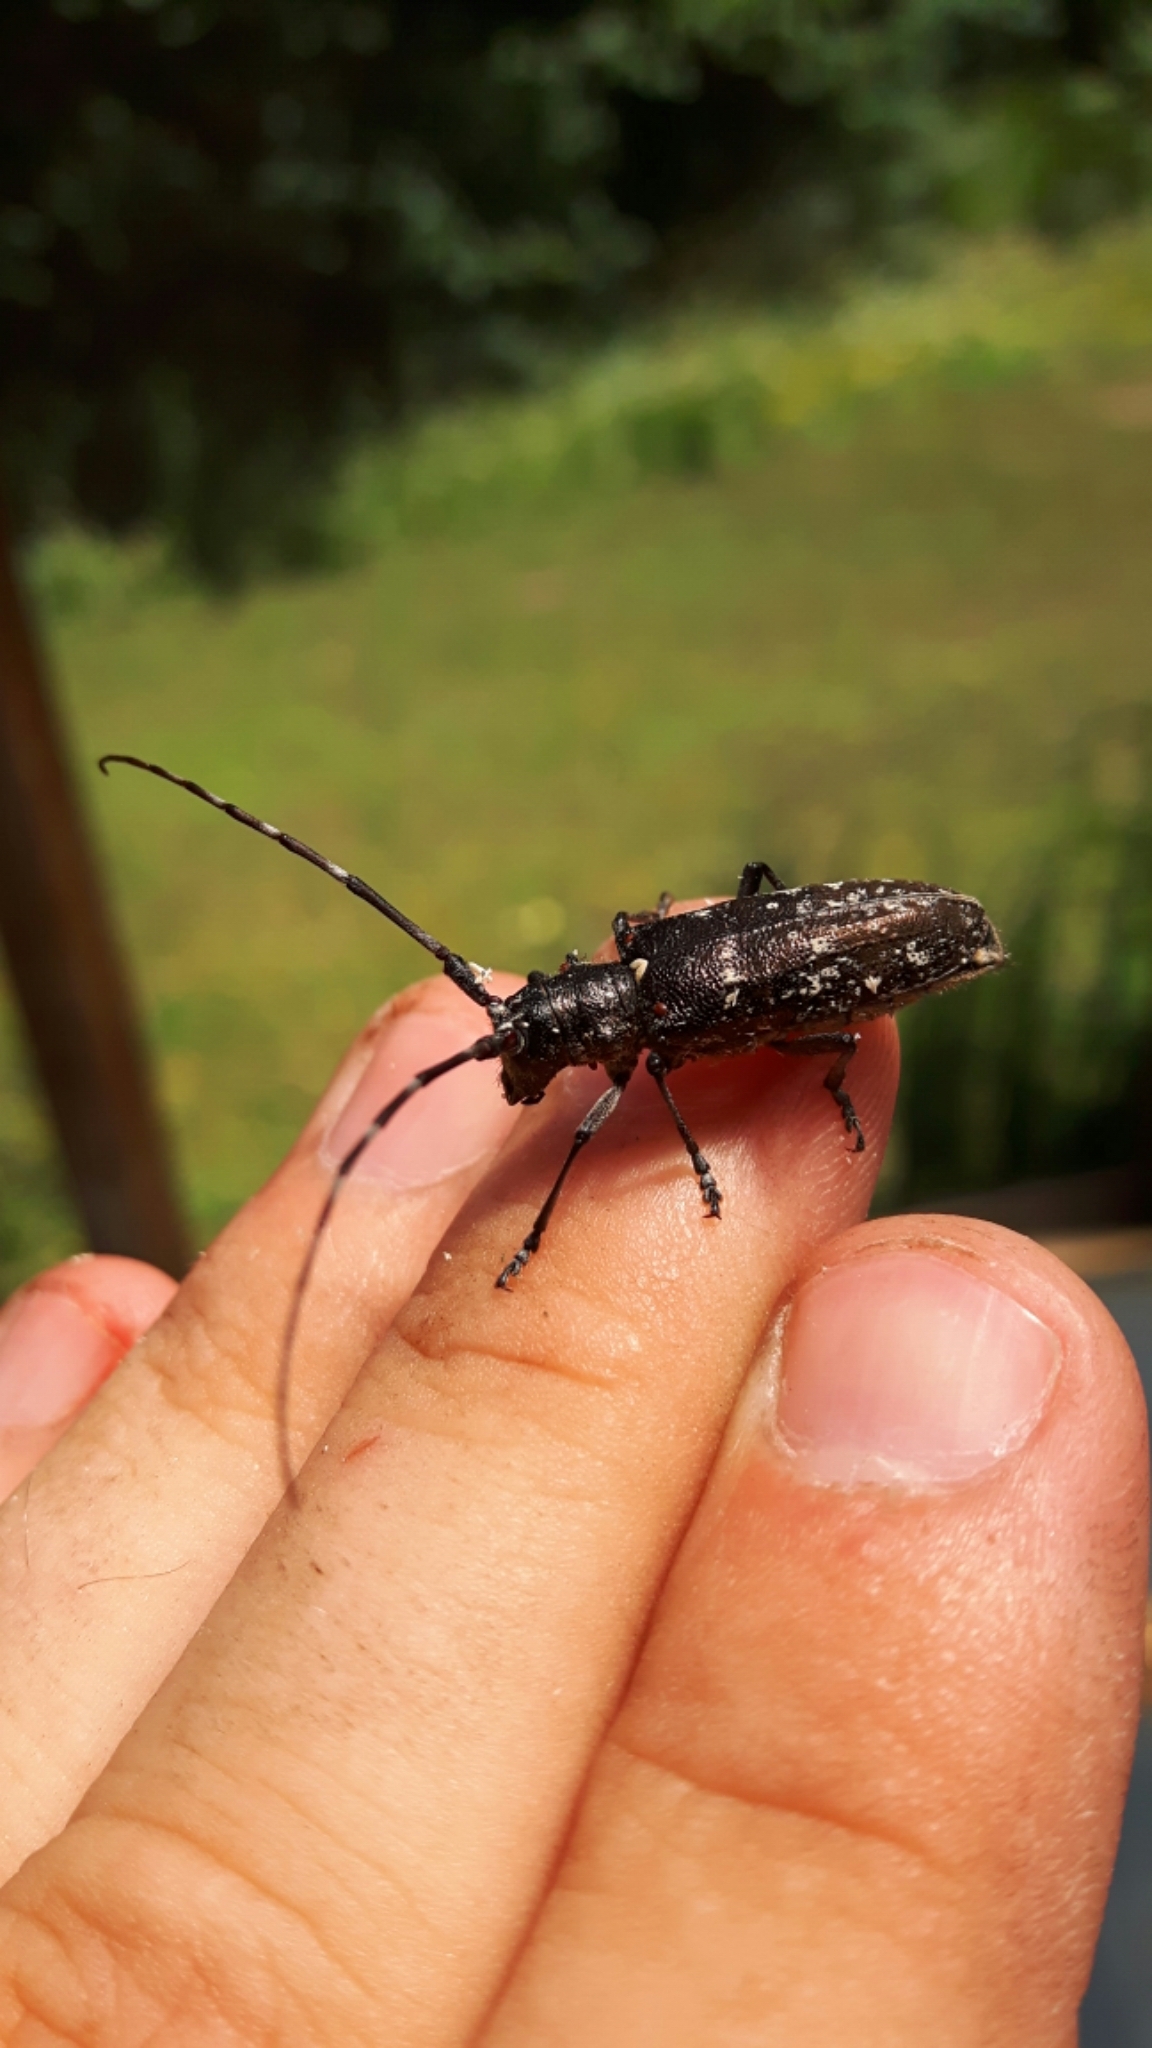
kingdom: Animalia
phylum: Arthropoda
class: Insecta
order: Coleoptera
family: Cerambycidae
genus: Monochamus
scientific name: Monochamus scutellatus
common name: White-spotted sawyer beetle
